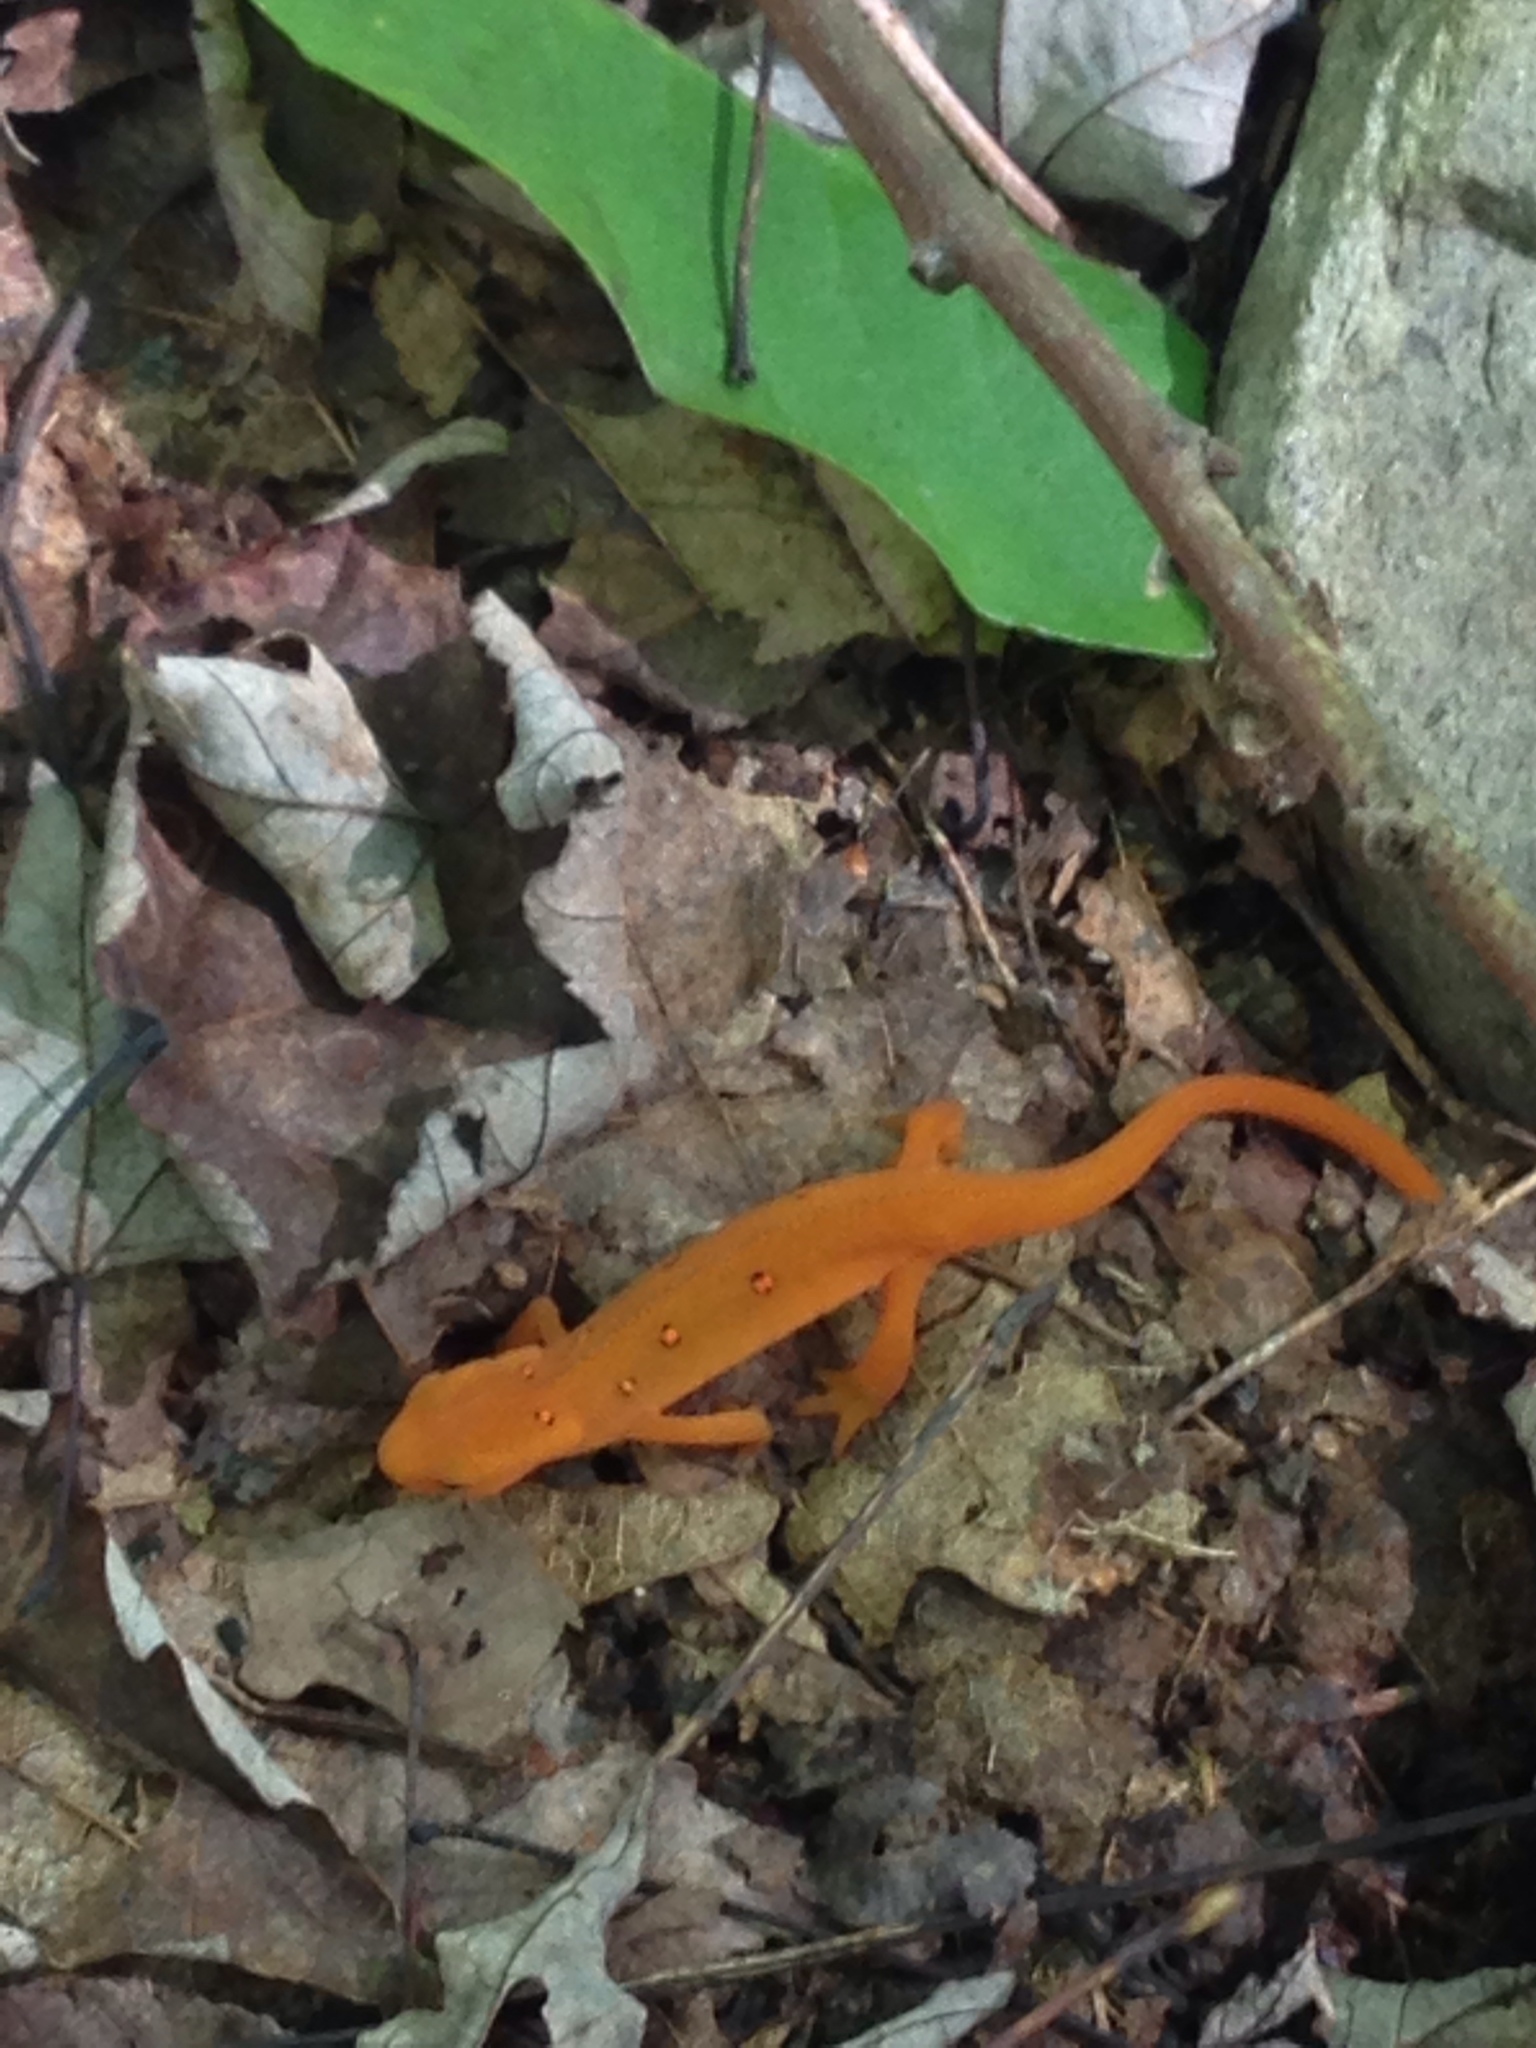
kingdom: Animalia
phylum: Chordata
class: Amphibia
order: Caudata
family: Salamandridae
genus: Notophthalmus
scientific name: Notophthalmus viridescens
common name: Eastern newt
